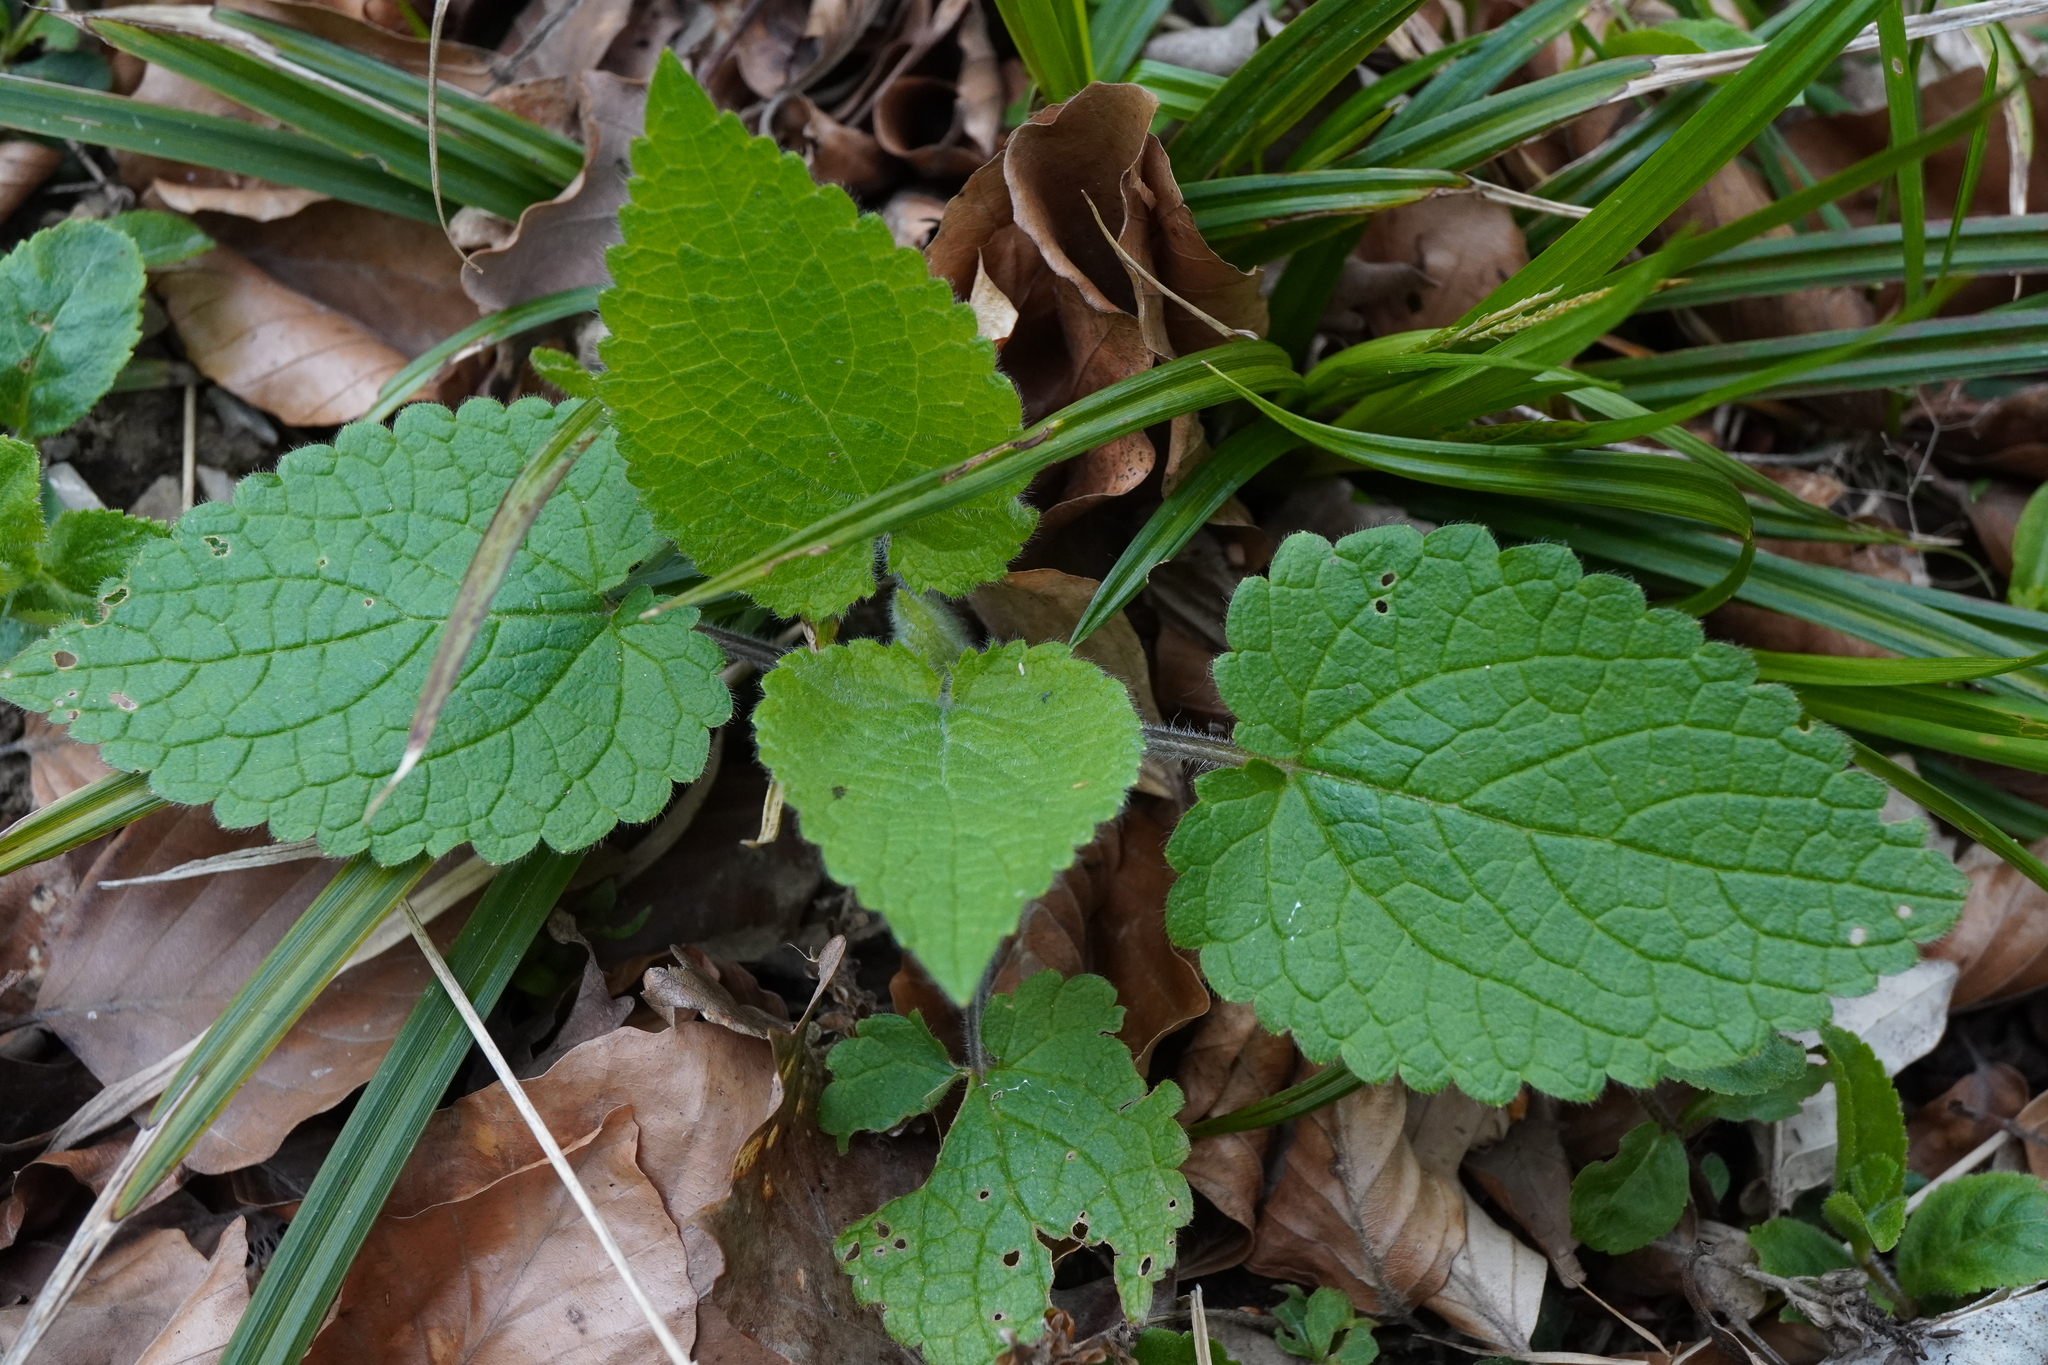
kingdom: Plantae
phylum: Tracheophyta
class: Magnoliopsida
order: Lamiales
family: Lamiaceae
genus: Stachys
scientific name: Stachys sylvatica
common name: Hedge woundwort
